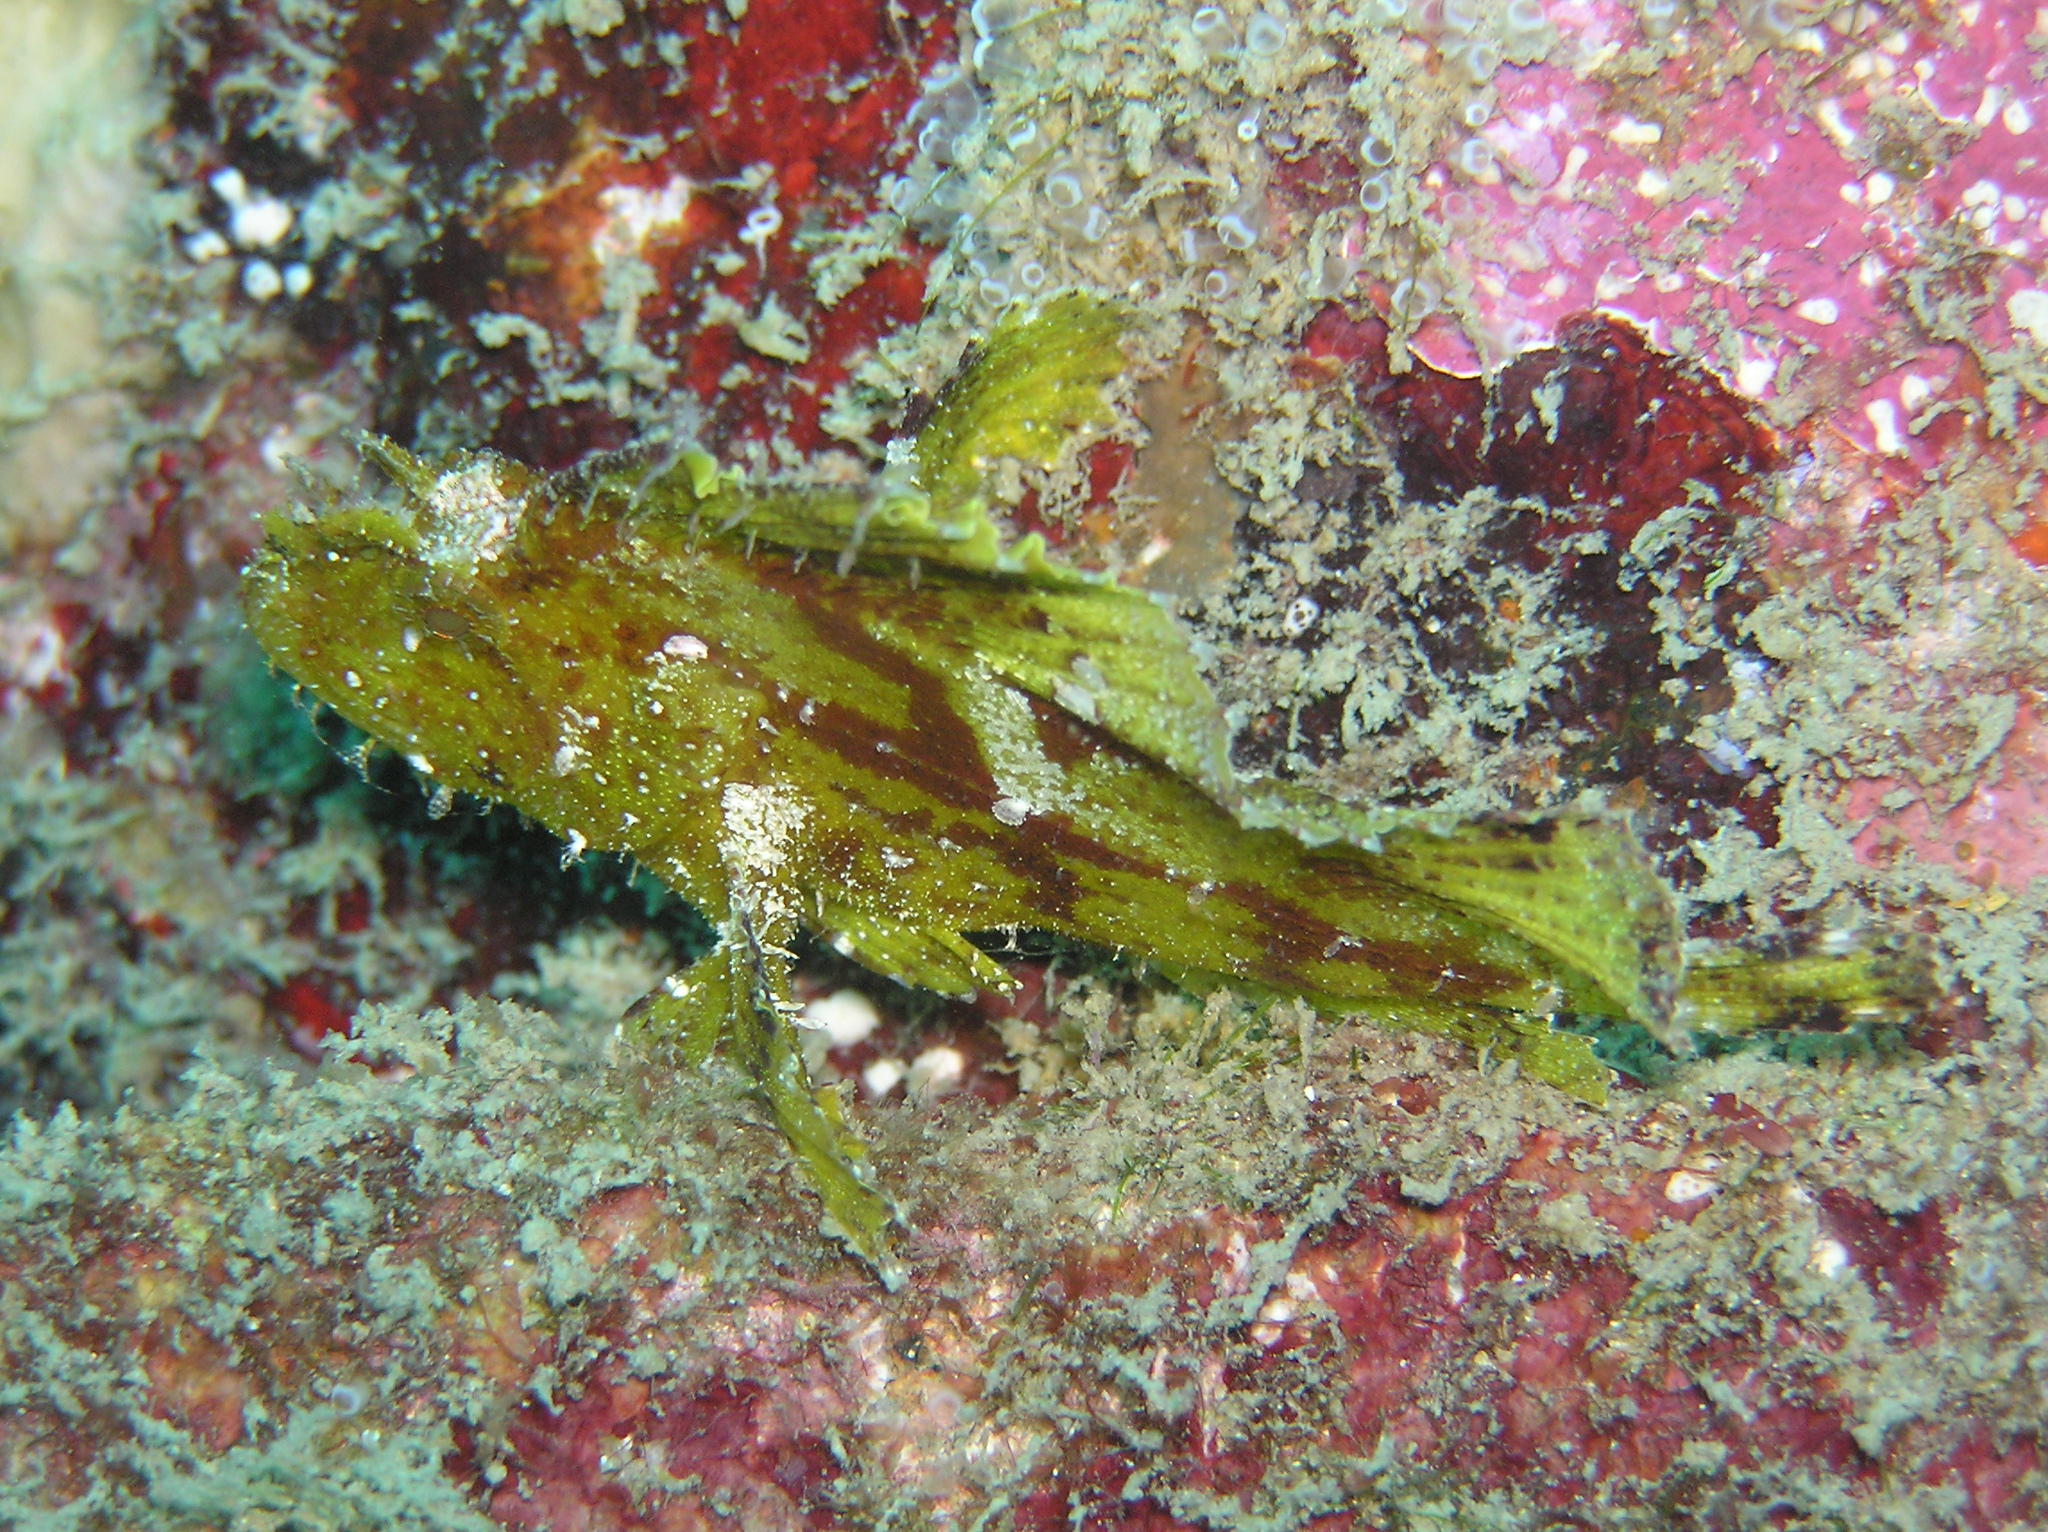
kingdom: Animalia
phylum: Chordata
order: Scorpaeniformes
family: Scorpaenidae
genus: Taenianotus
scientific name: Taenianotus triacanthus
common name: Leaf scorpionfish
